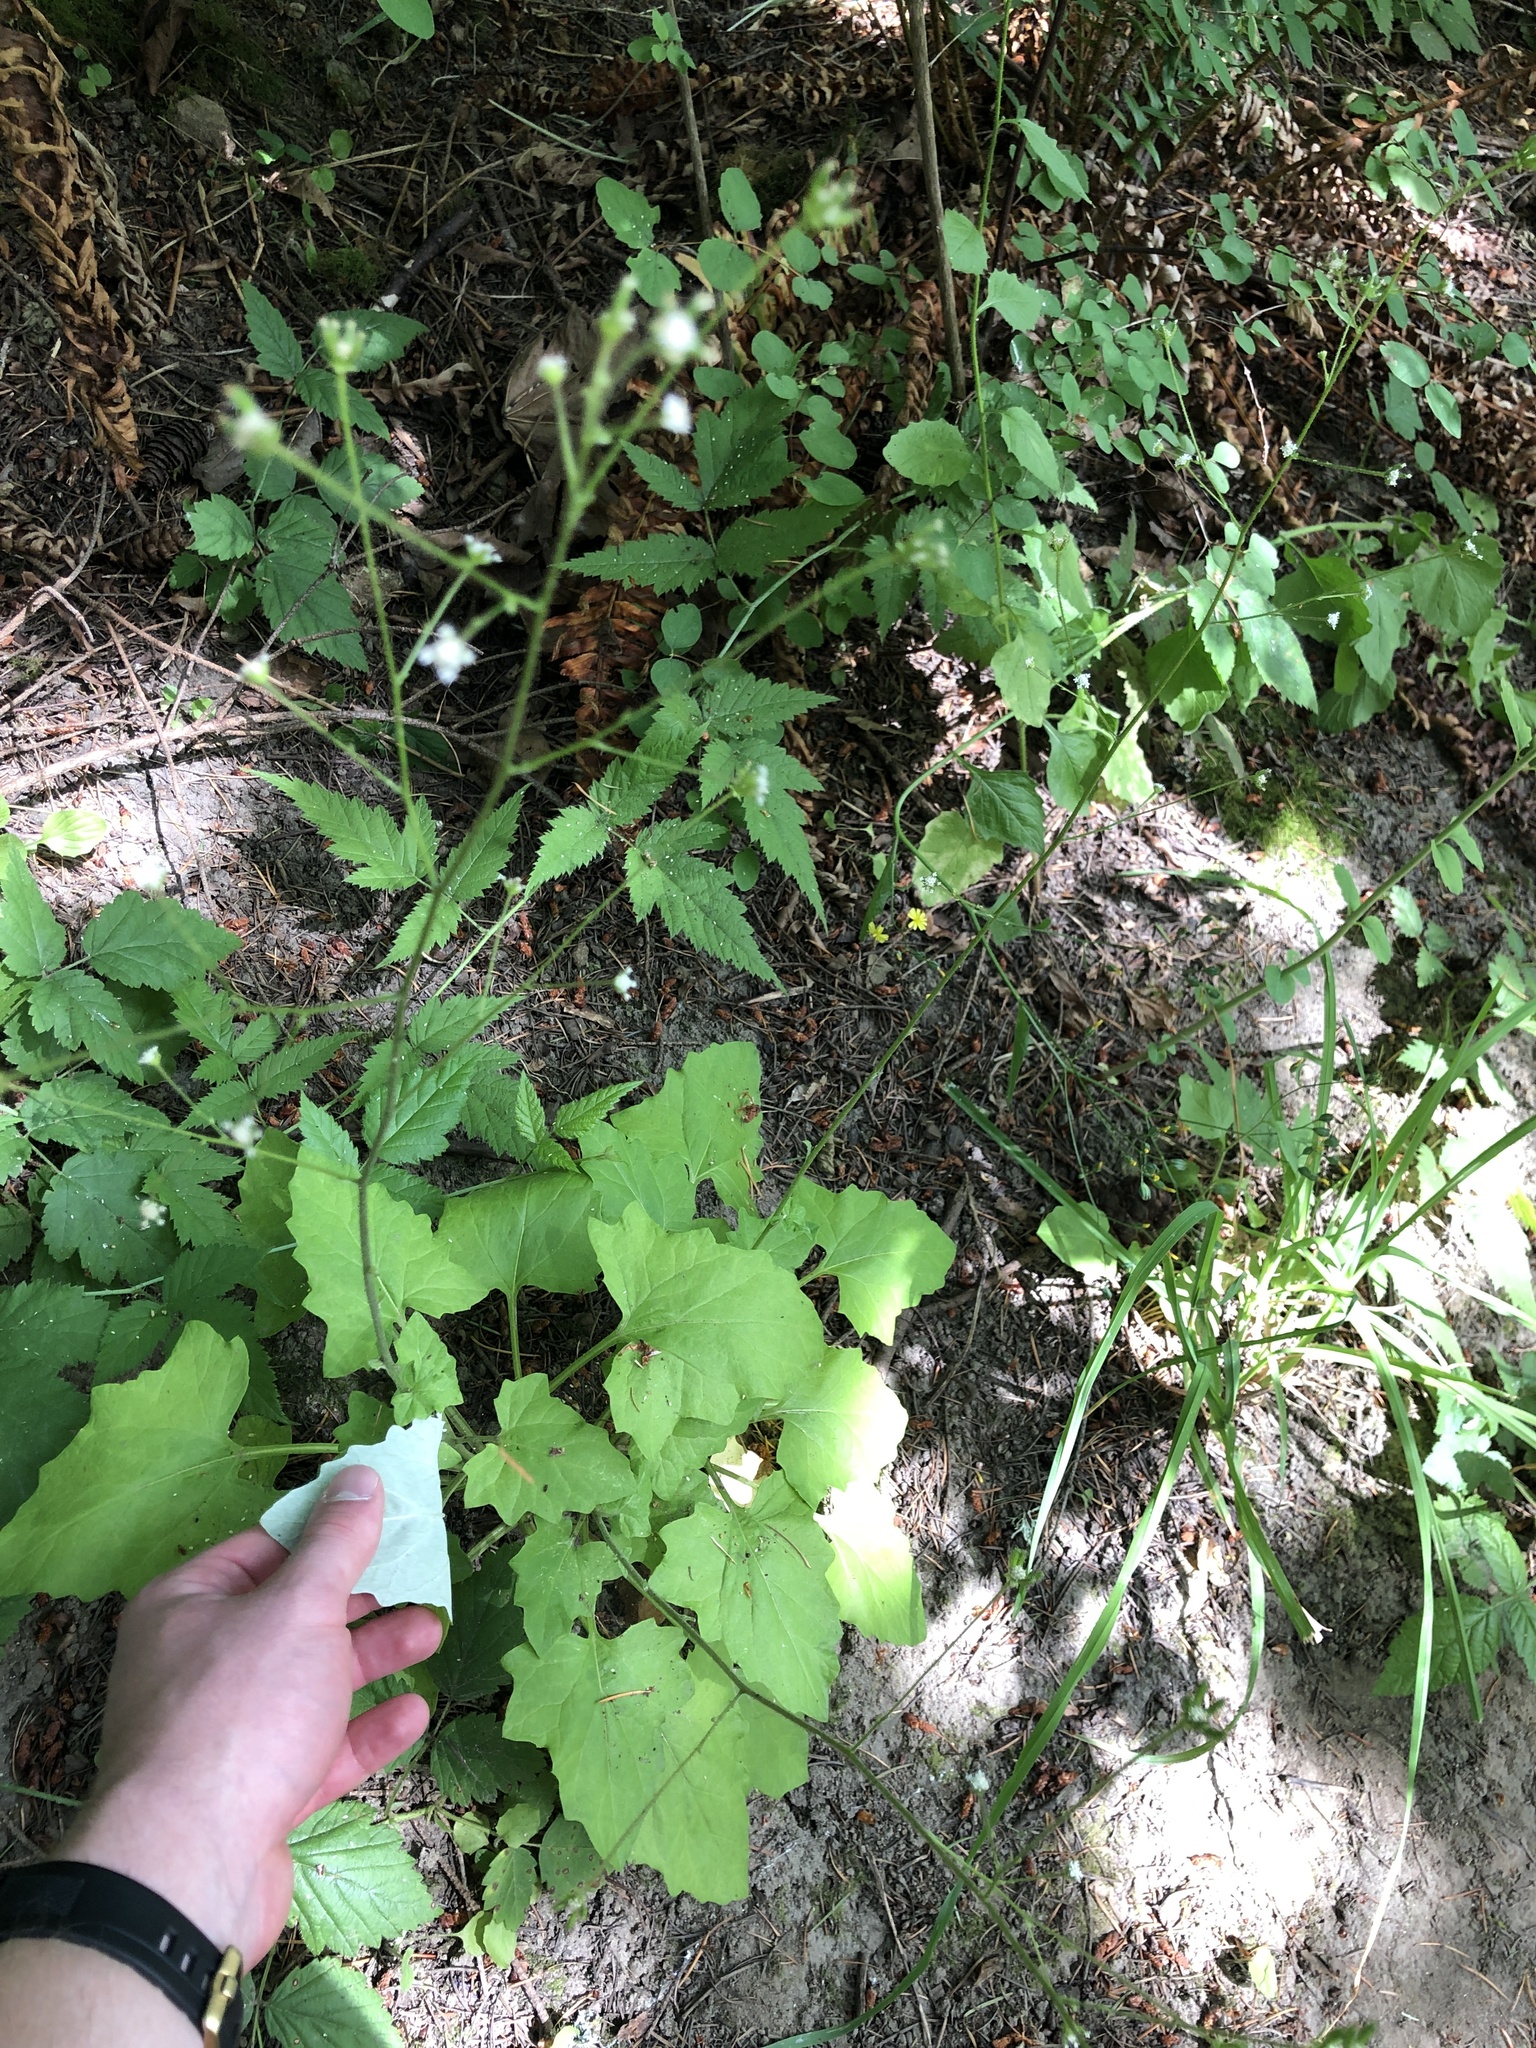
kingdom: Plantae
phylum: Tracheophyta
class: Magnoliopsida
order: Asterales
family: Asteraceae
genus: Adenocaulon
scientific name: Adenocaulon bicolor
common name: Trailplant
